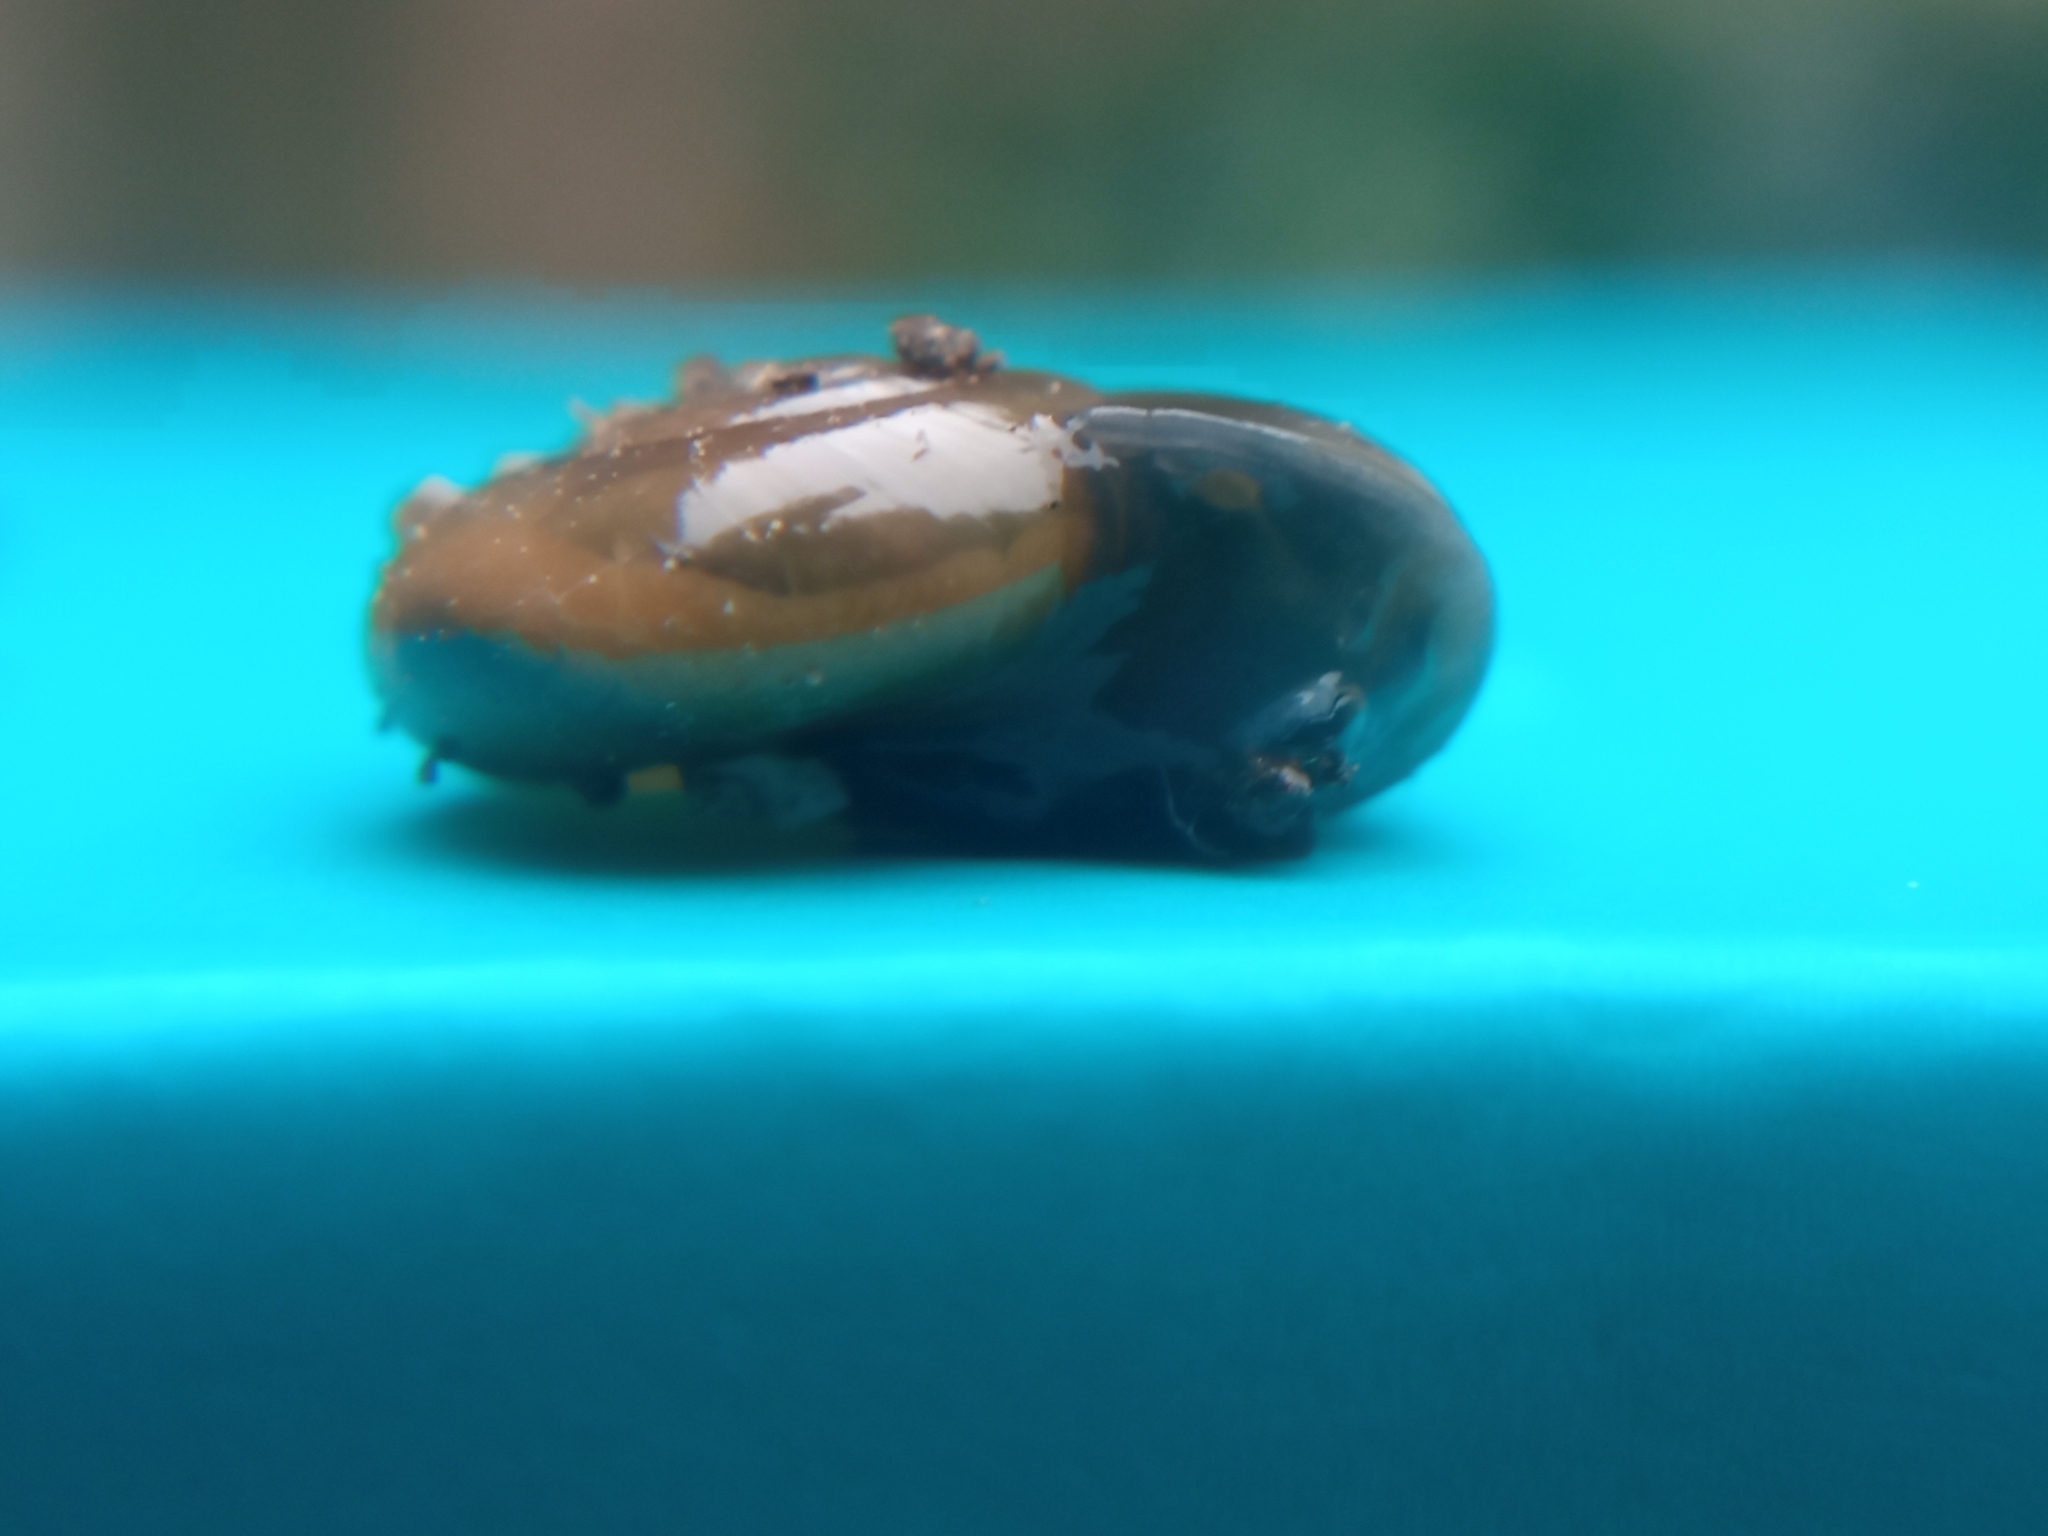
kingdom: Animalia
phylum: Mollusca
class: Gastropoda
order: Stylommatophora
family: Oxychilidae
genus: Oxychilus
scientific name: Oxychilus draparnaudi
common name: Draparnaud's glass snail
